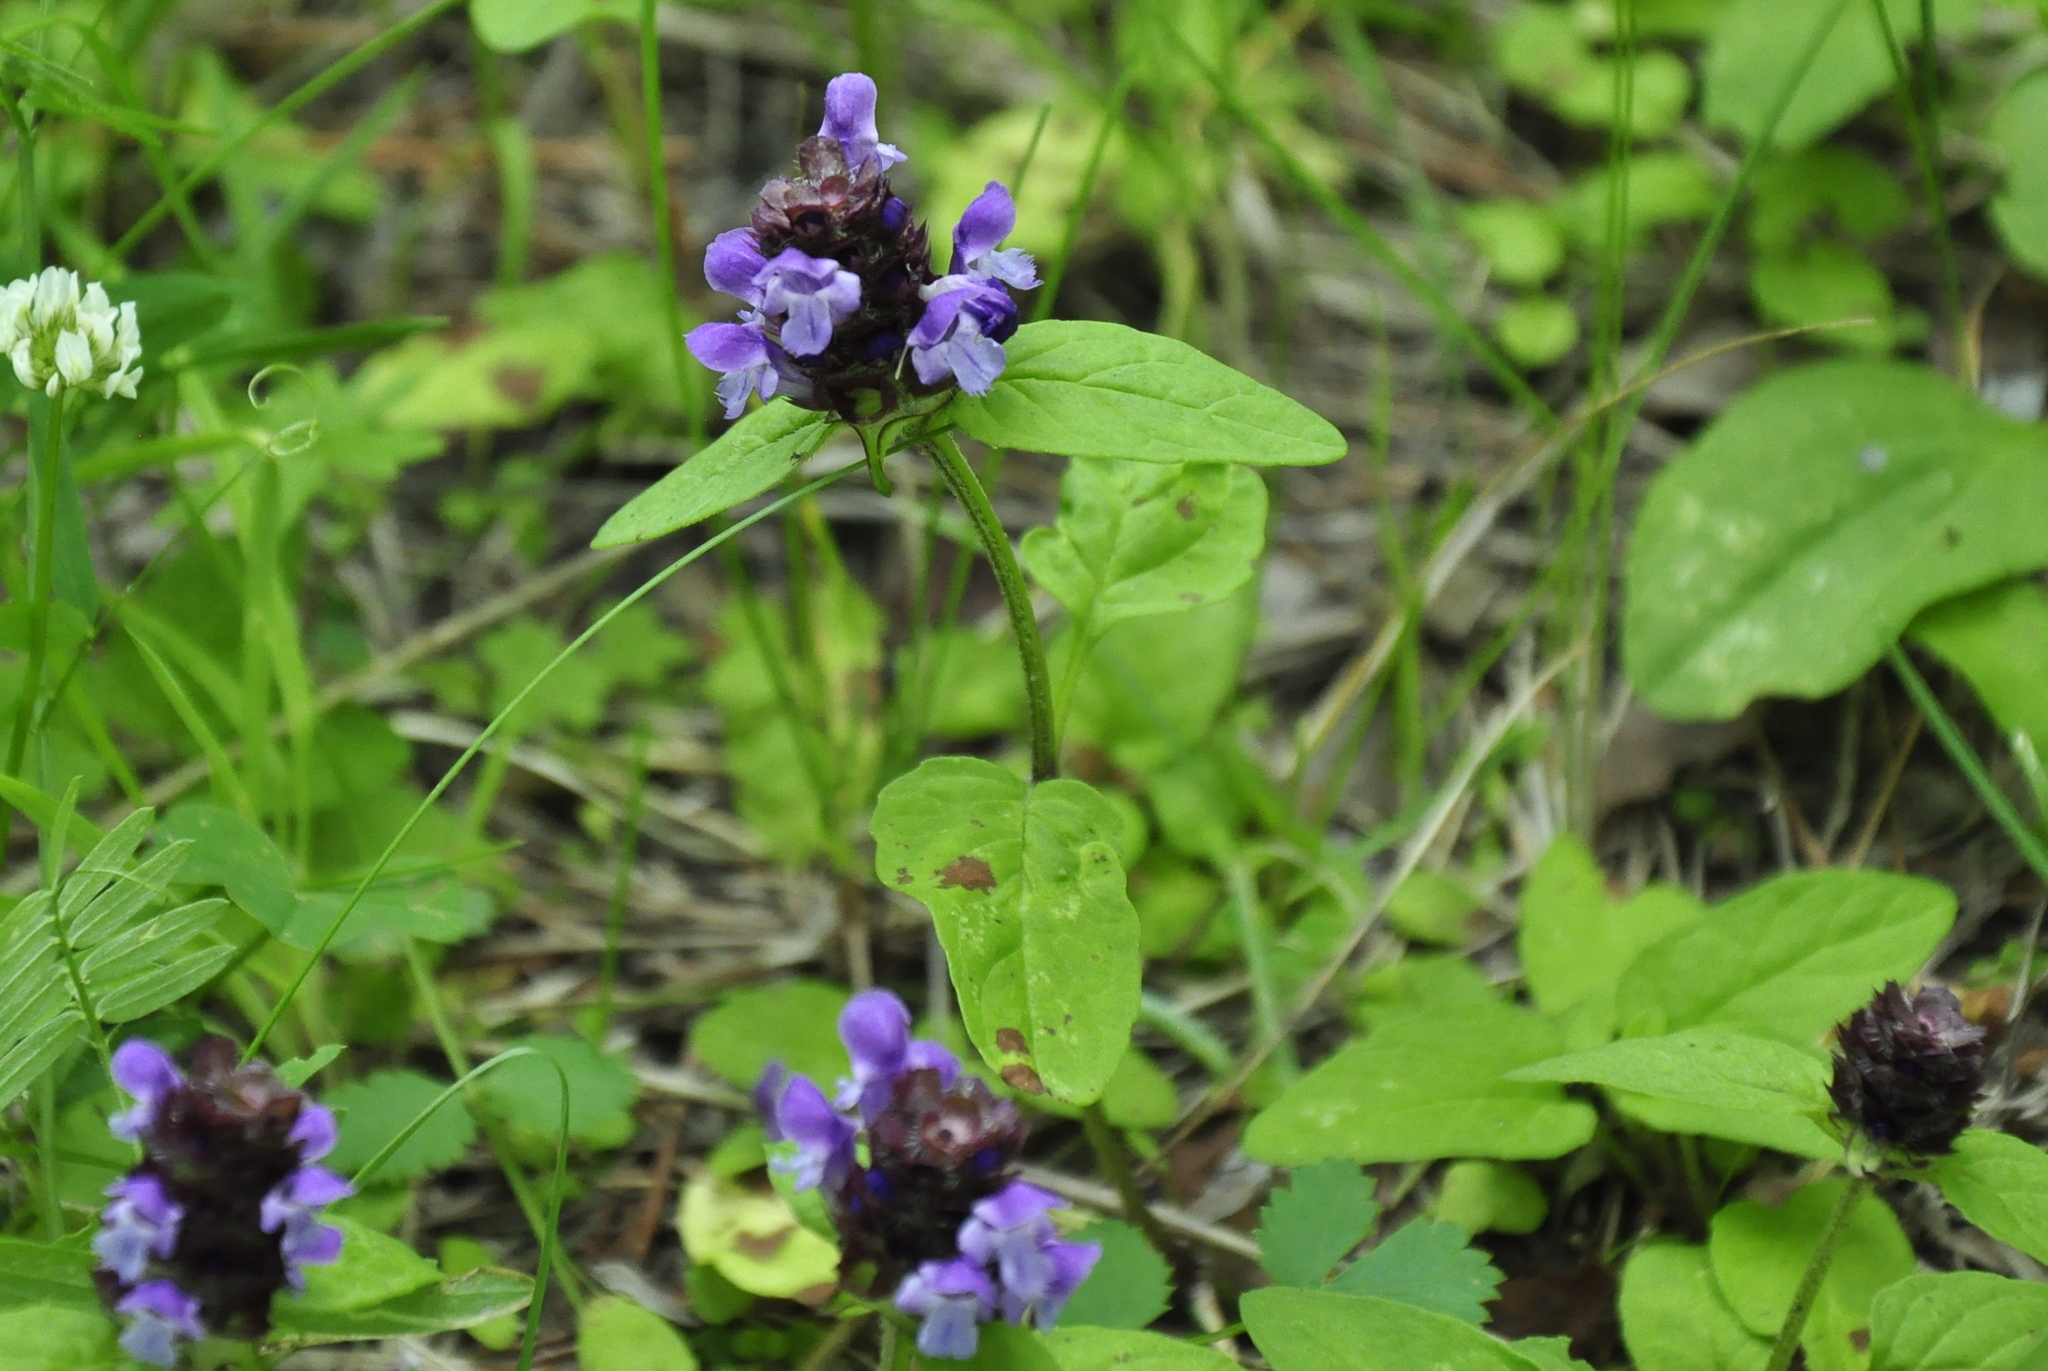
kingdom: Plantae
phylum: Tracheophyta
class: Magnoliopsida
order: Lamiales
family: Lamiaceae
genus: Prunella
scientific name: Prunella vulgaris
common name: Heal-all
